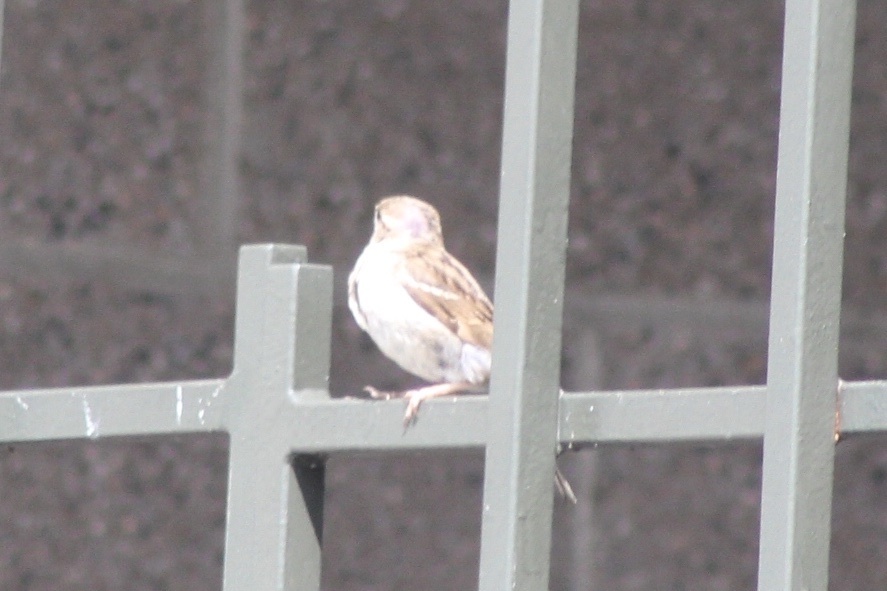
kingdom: Animalia
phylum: Chordata
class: Aves
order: Passeriformes
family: Passeridae
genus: Passer
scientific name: Passer domesticus
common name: House sparrow
